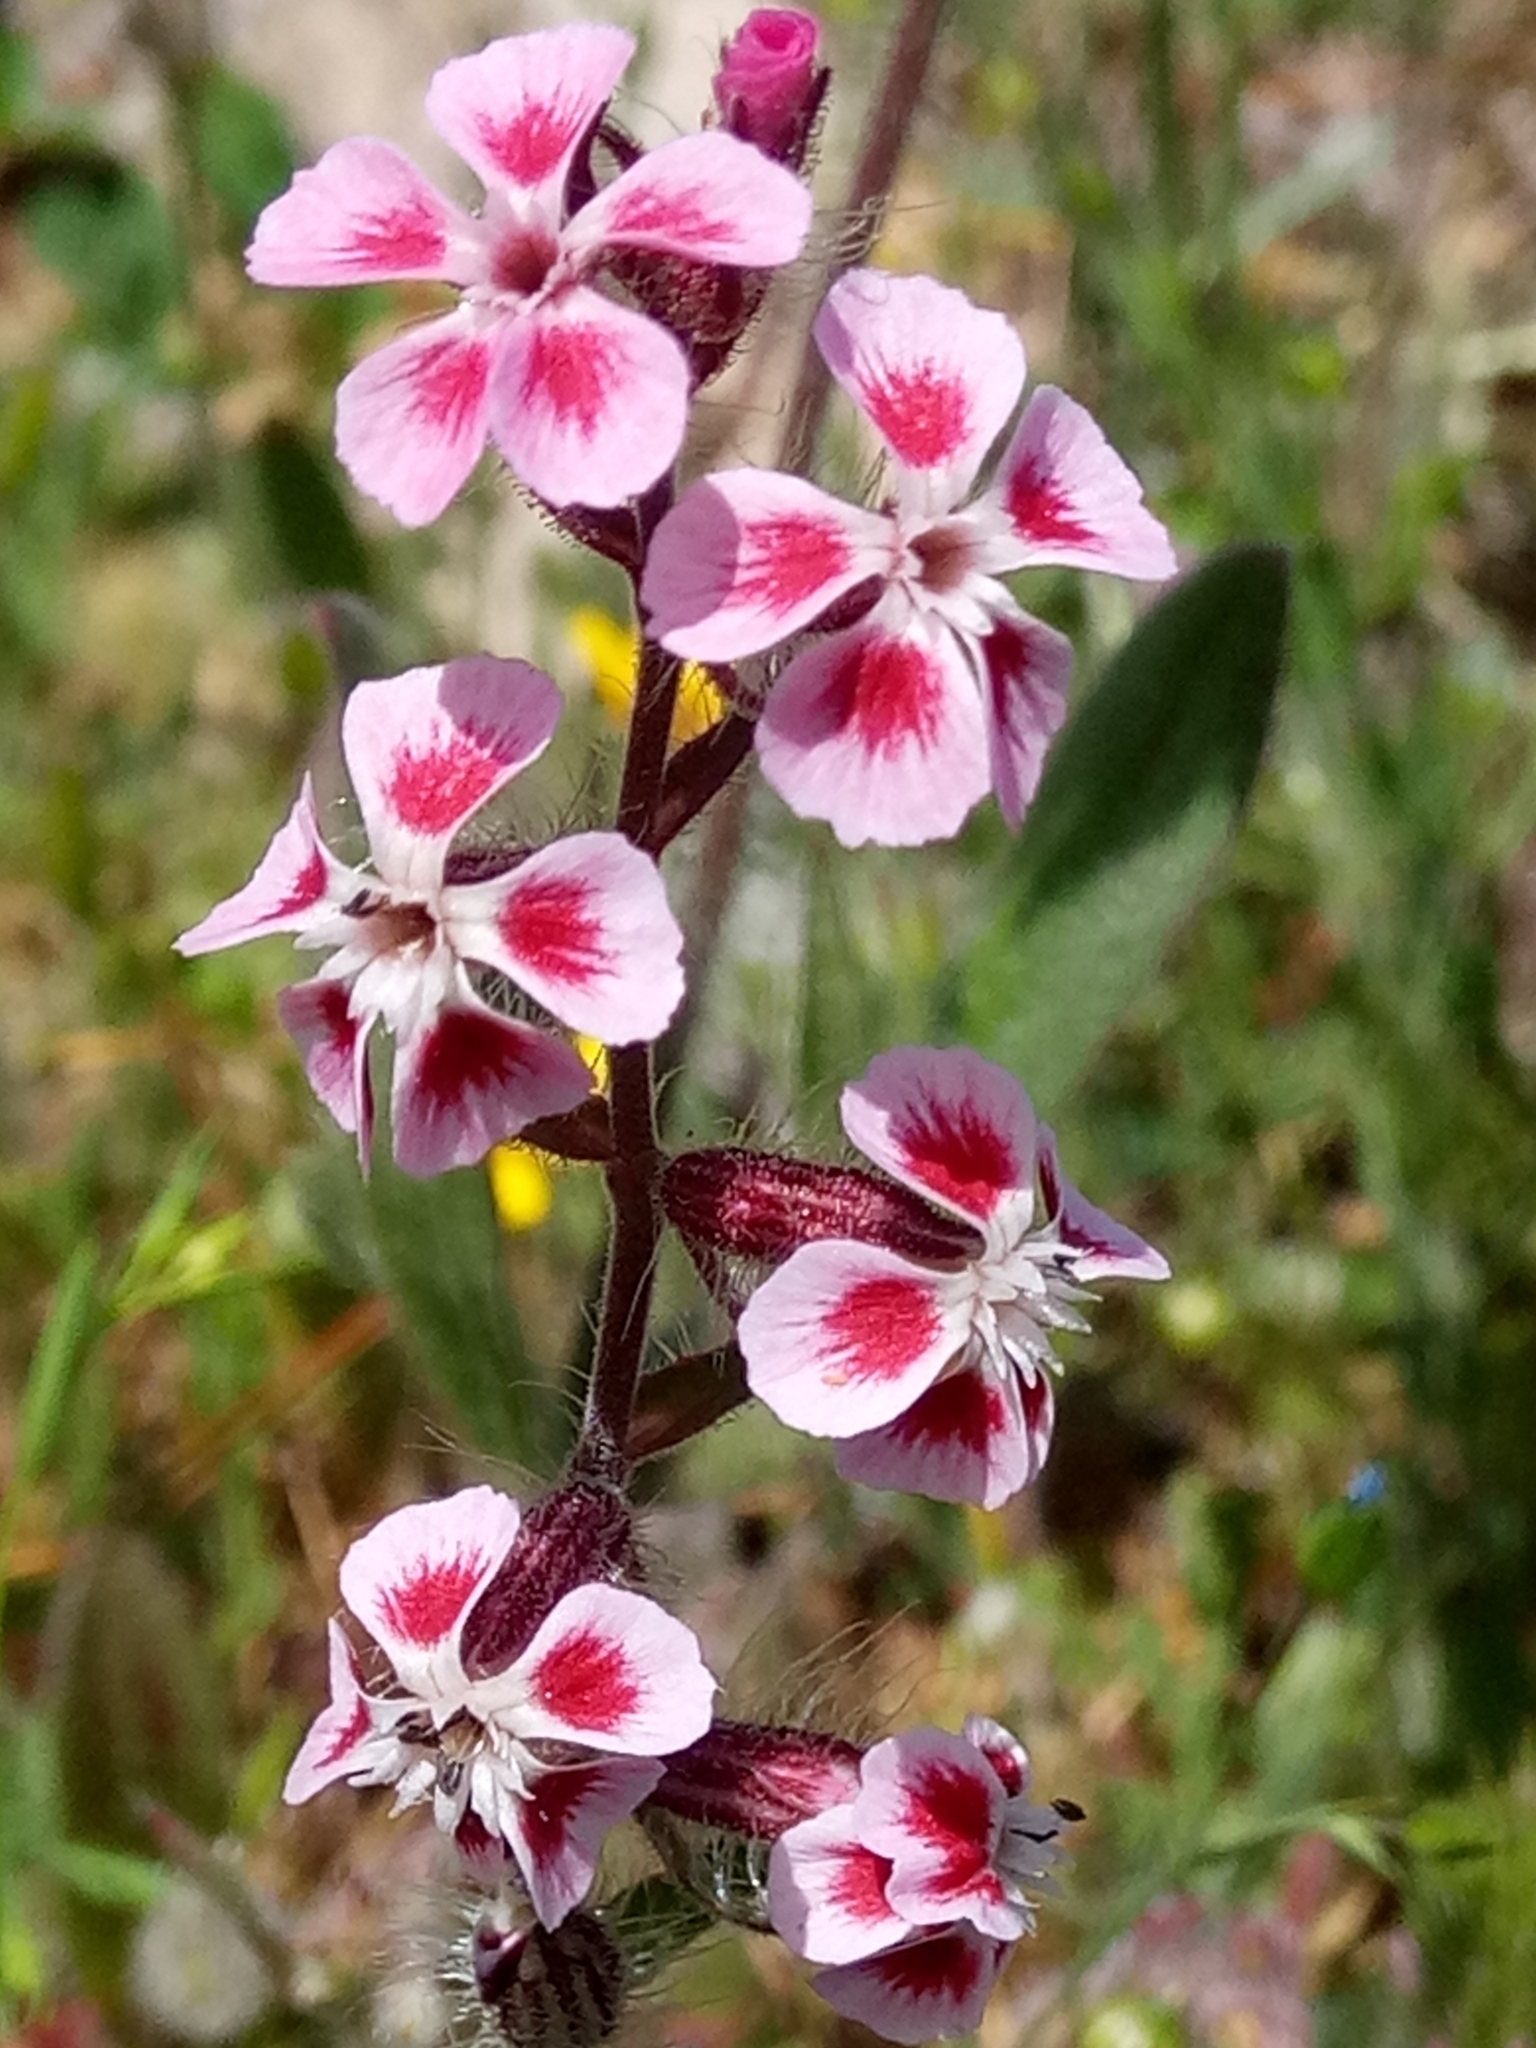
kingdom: Plantae
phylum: Tracheophyta
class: Magnoliopsida
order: Caryophyllales
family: Caryophyllaceae
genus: Silene
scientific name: Silene gallica
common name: Small-flowered catchfly
